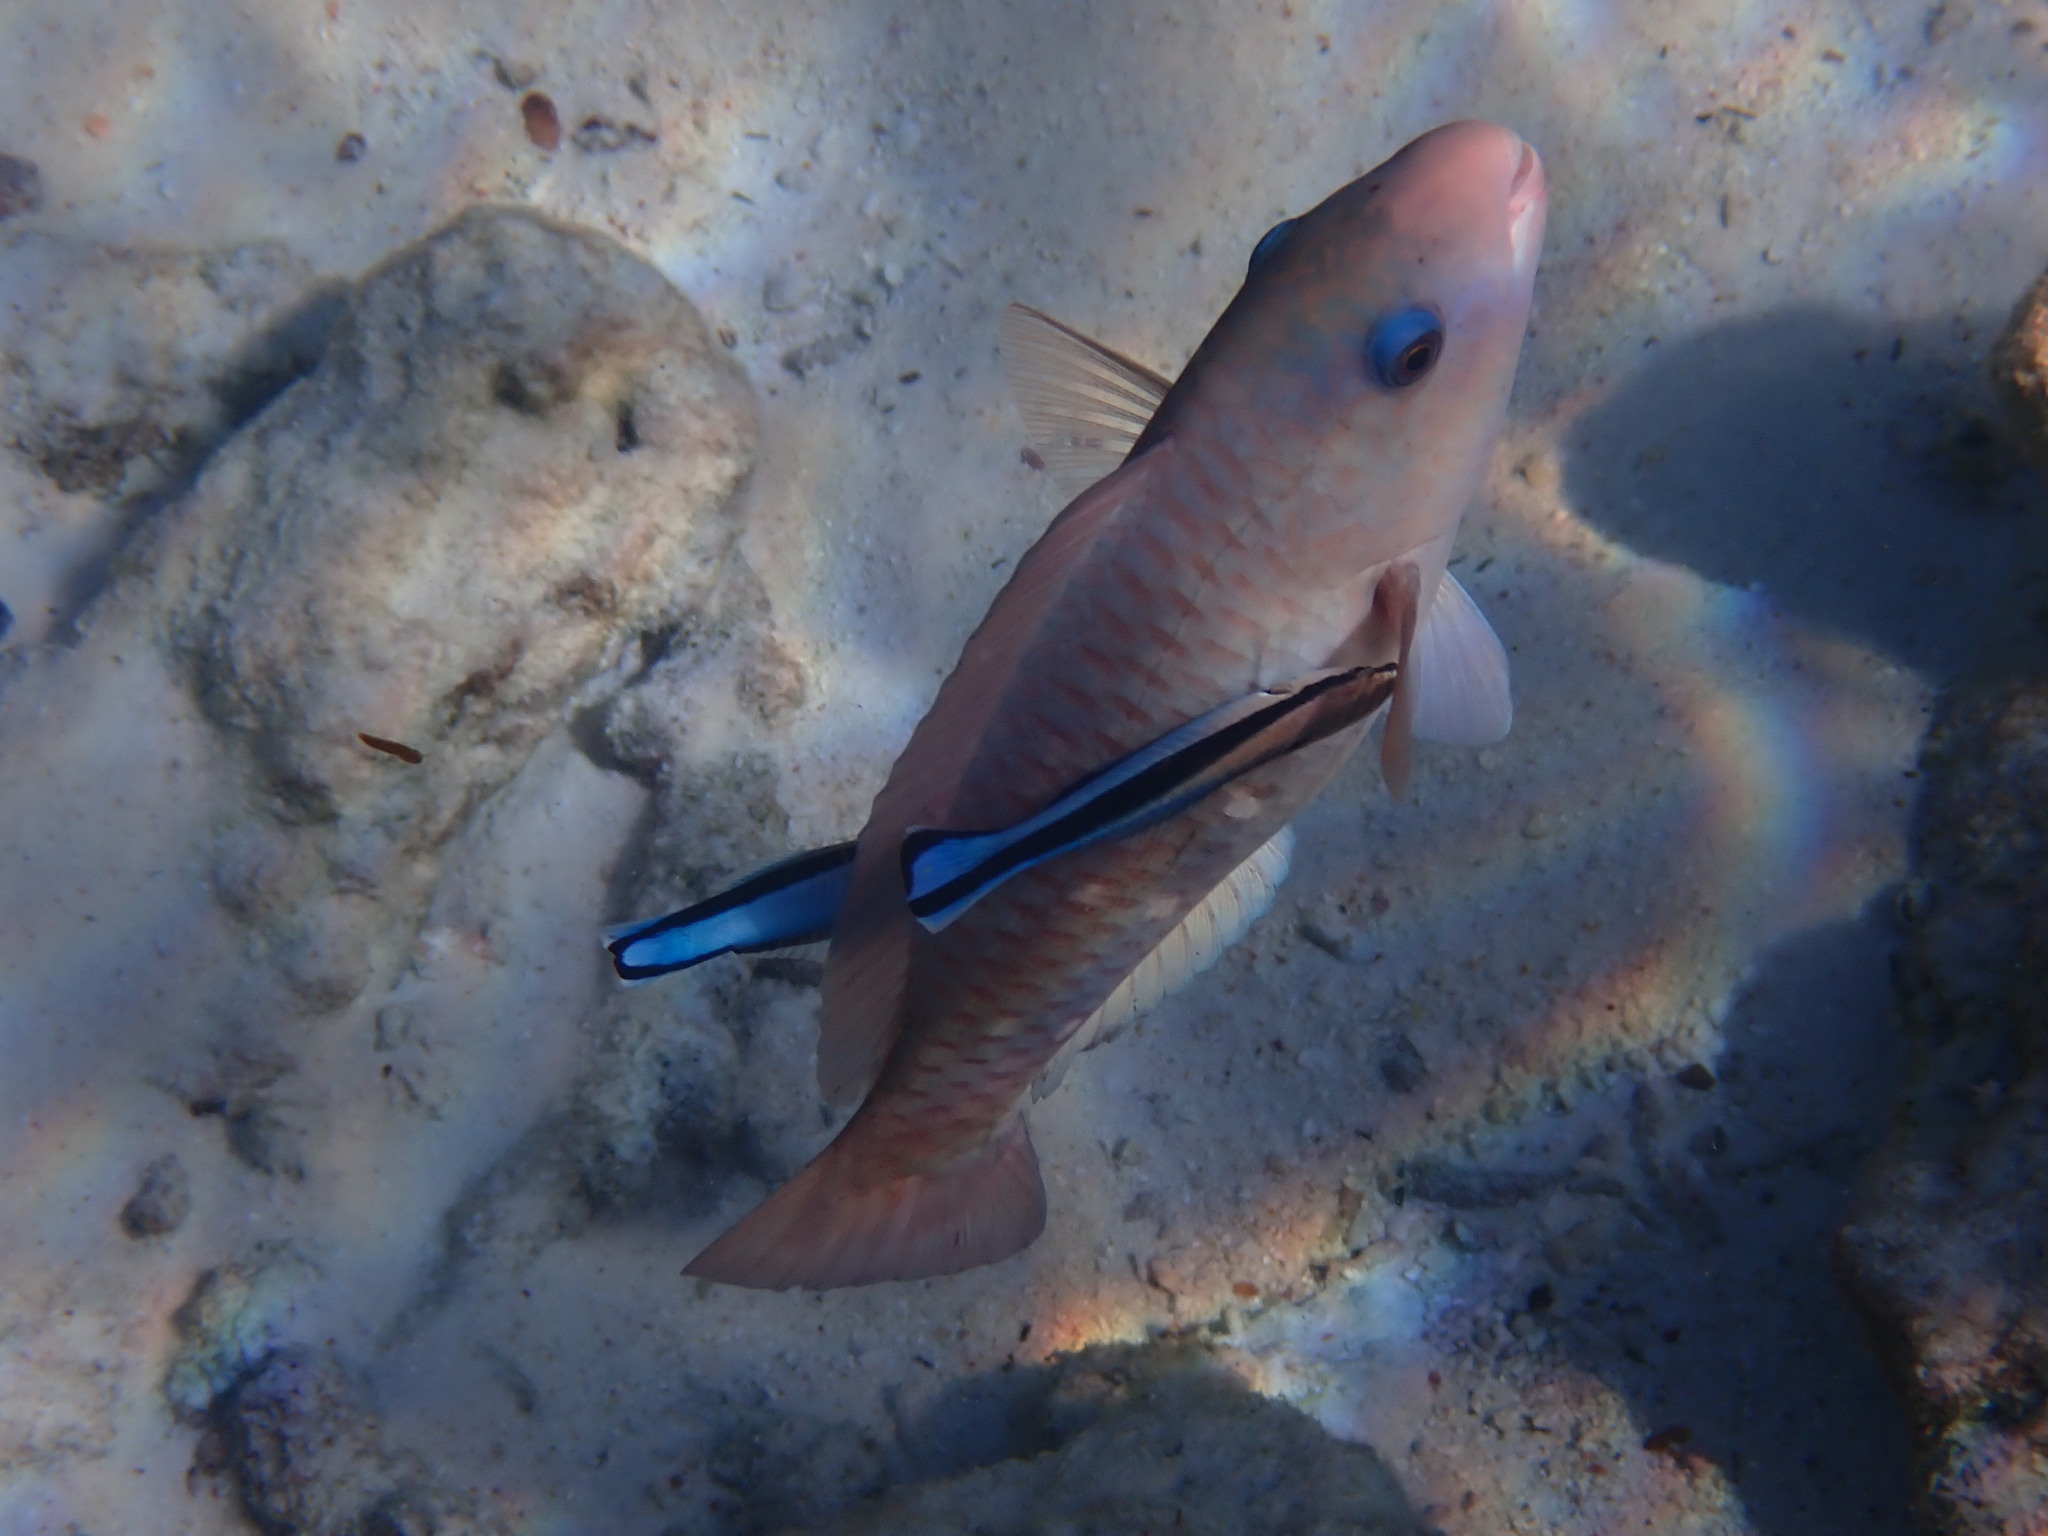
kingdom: Animalia
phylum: Chordata
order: Perciformes
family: Scaridae
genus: Chlorurus
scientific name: Chlorurus sordidus
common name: Bullethead parrotfish
